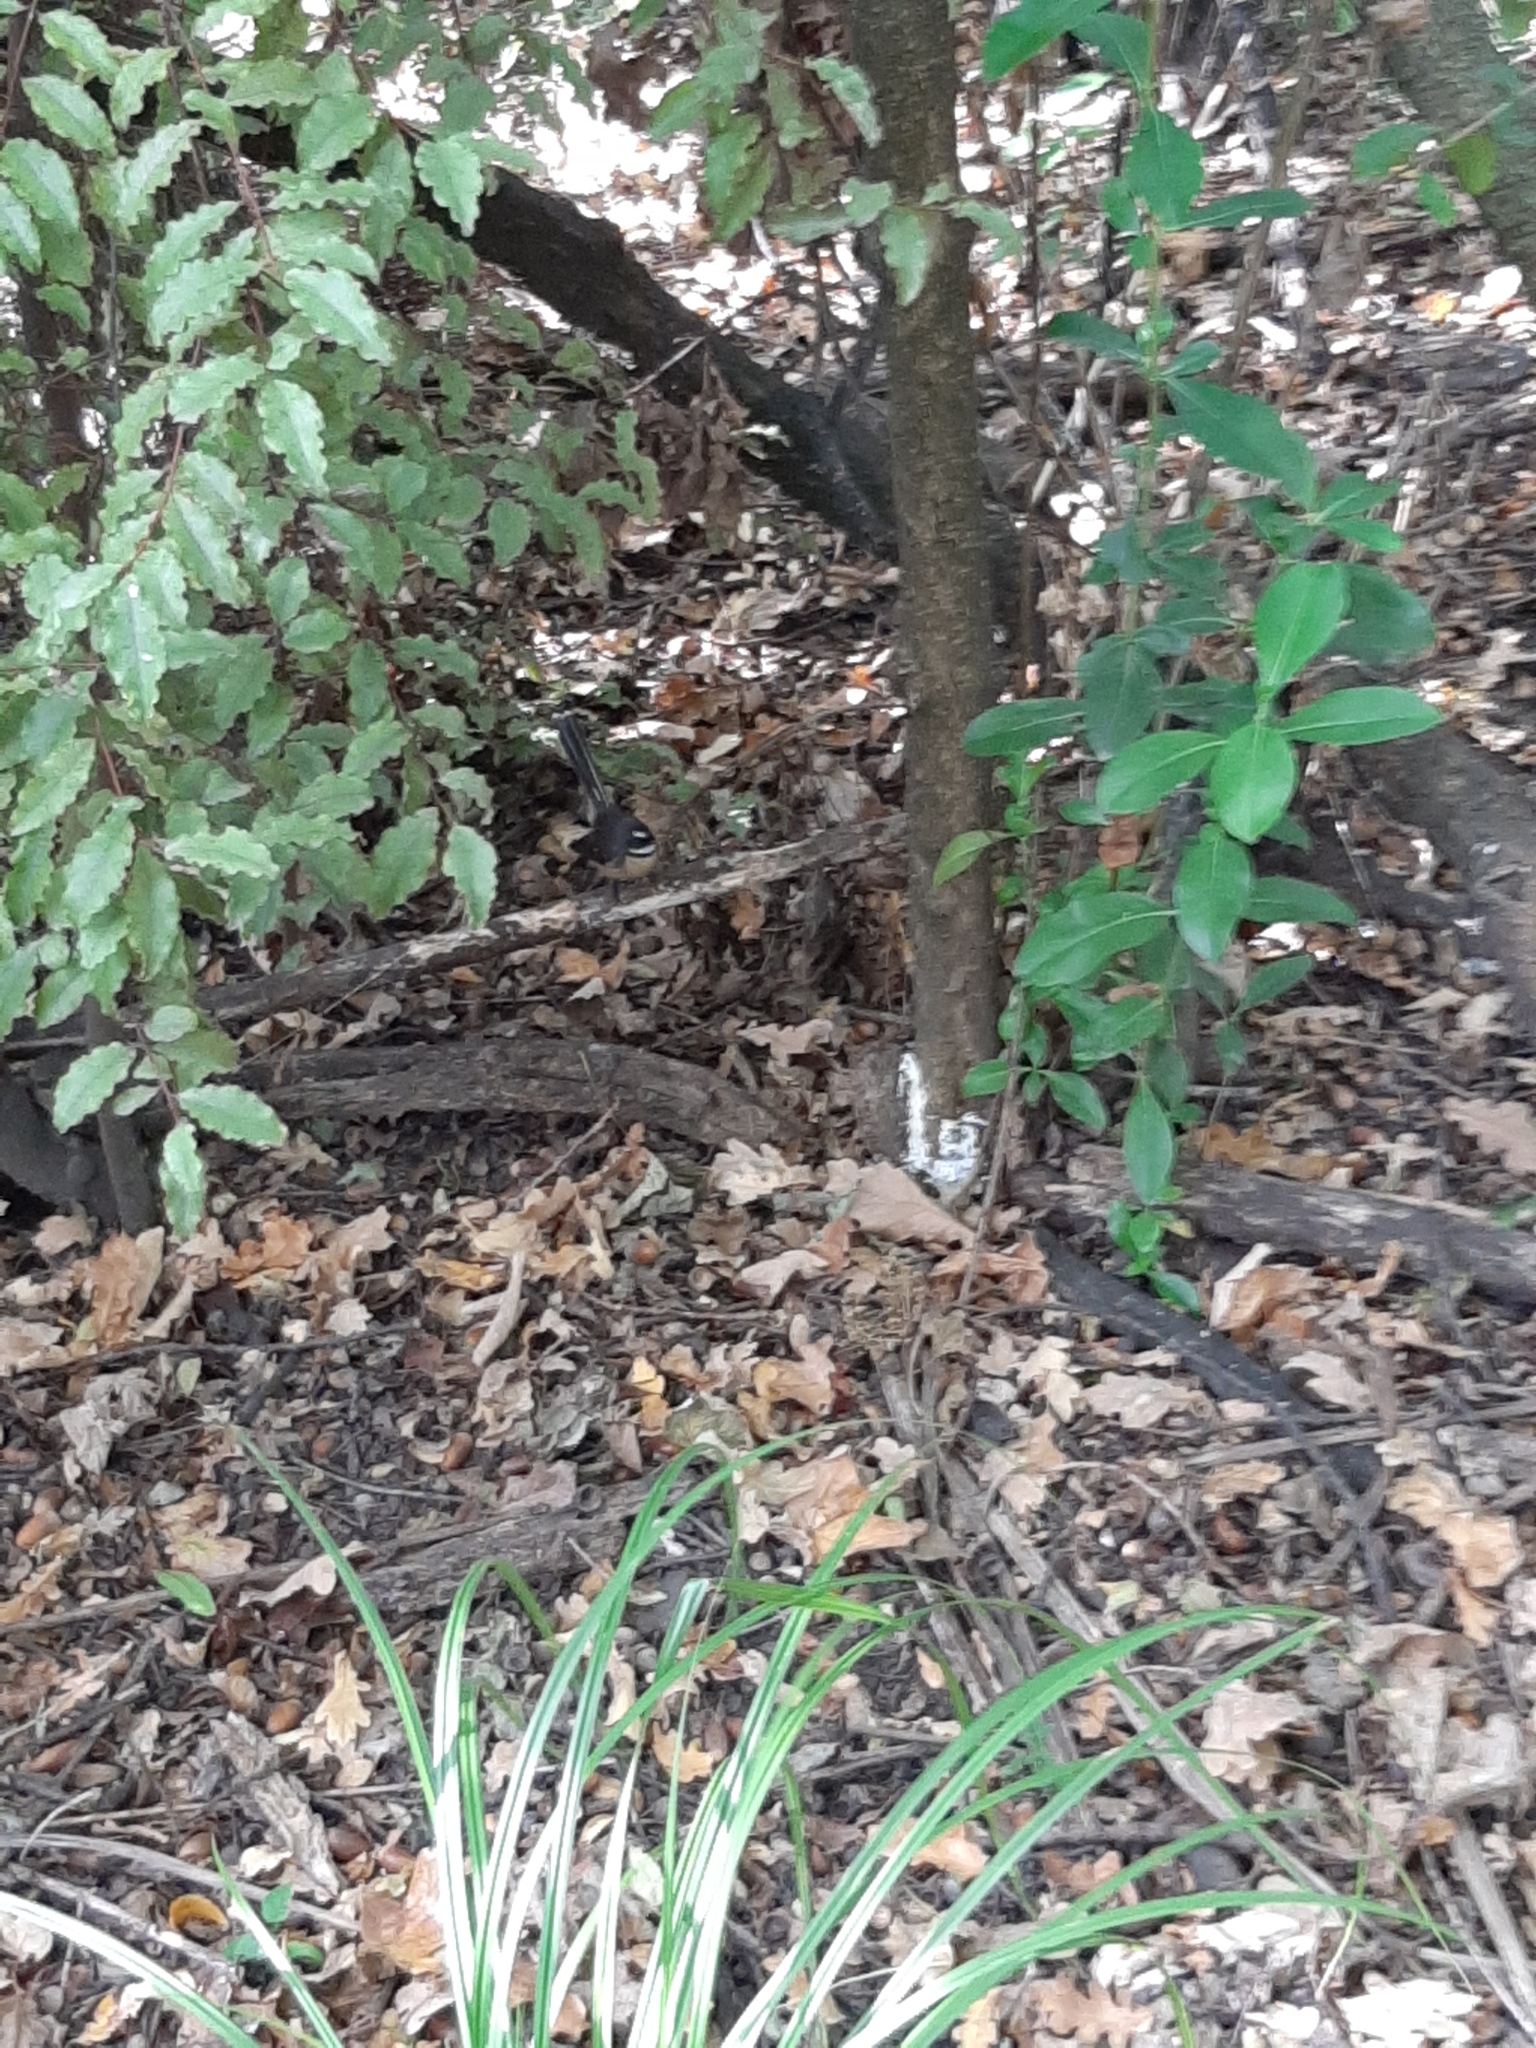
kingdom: Animalia
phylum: Chordata
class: Aves
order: Passeriformes
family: Rhipiduridae
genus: Rhipidura
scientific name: Rhipidura fuliginosa
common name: New zealand fantail
